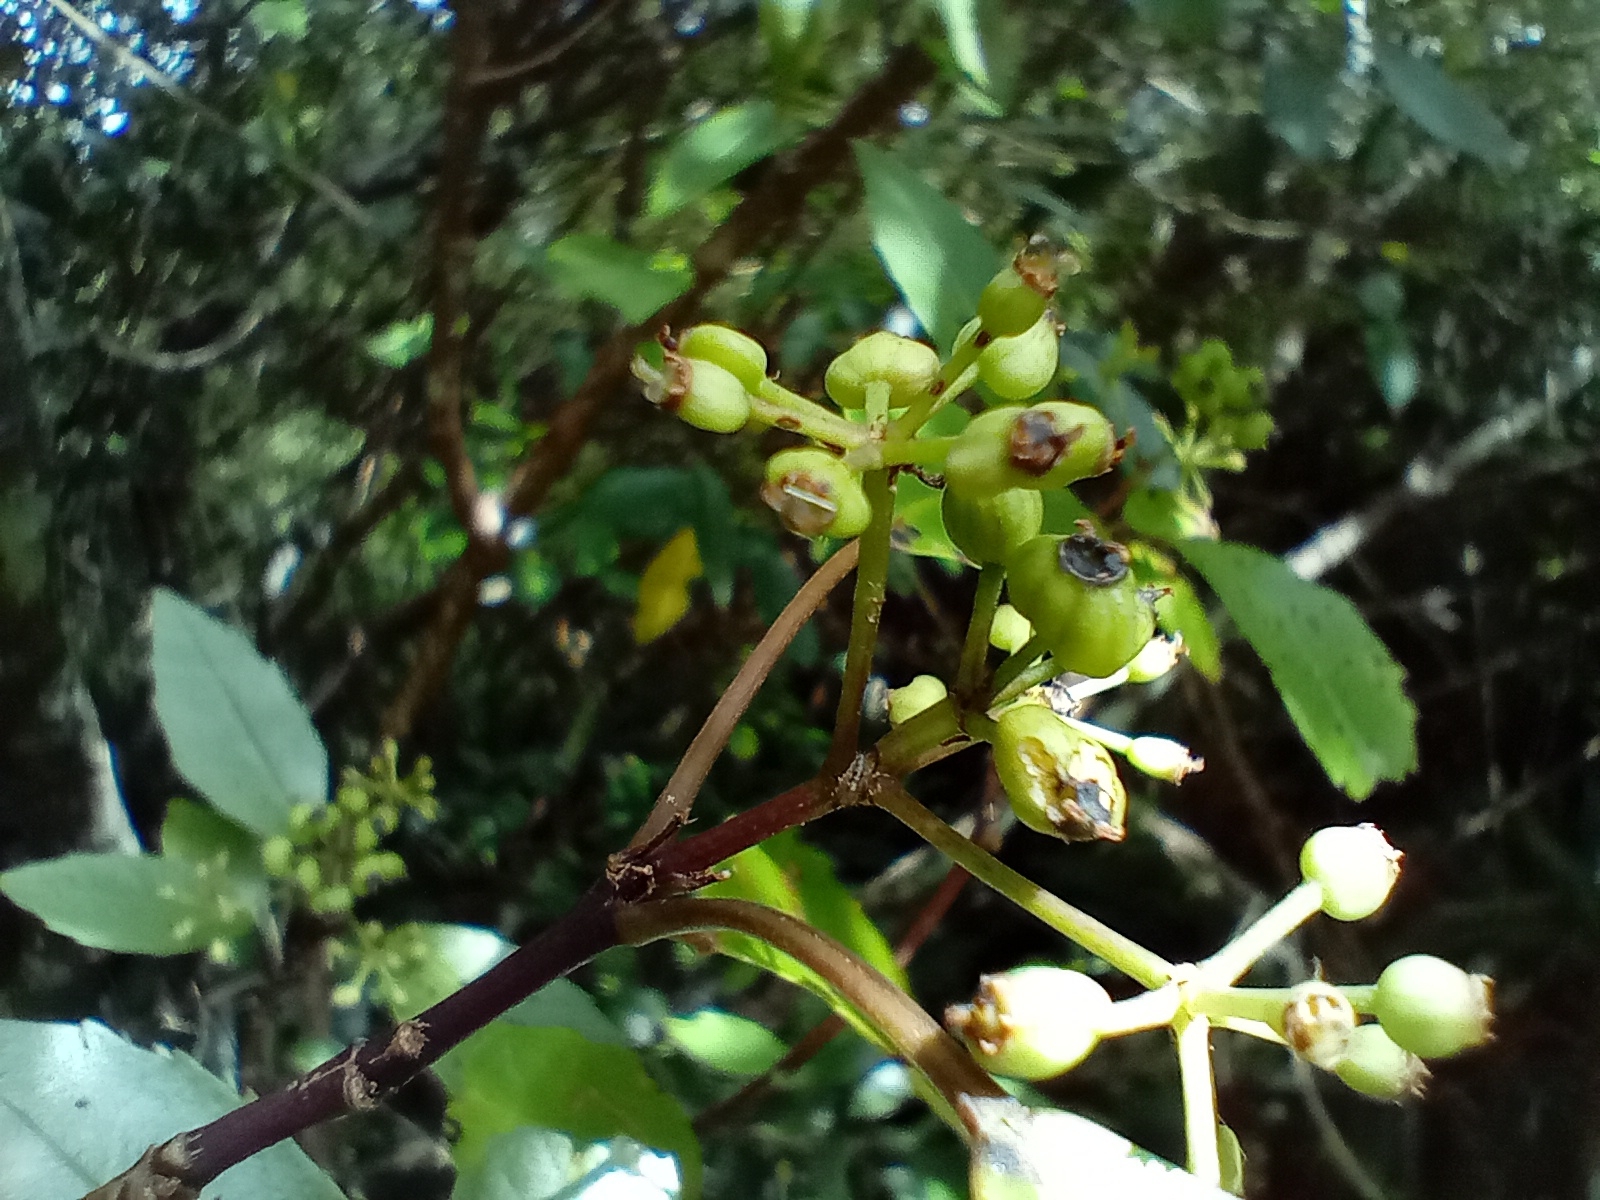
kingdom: Plantae
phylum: Tracheophyta
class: Magnoliopsida
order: Apiales
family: Araliaceae
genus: Raukaua
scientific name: Raukaua simplex
